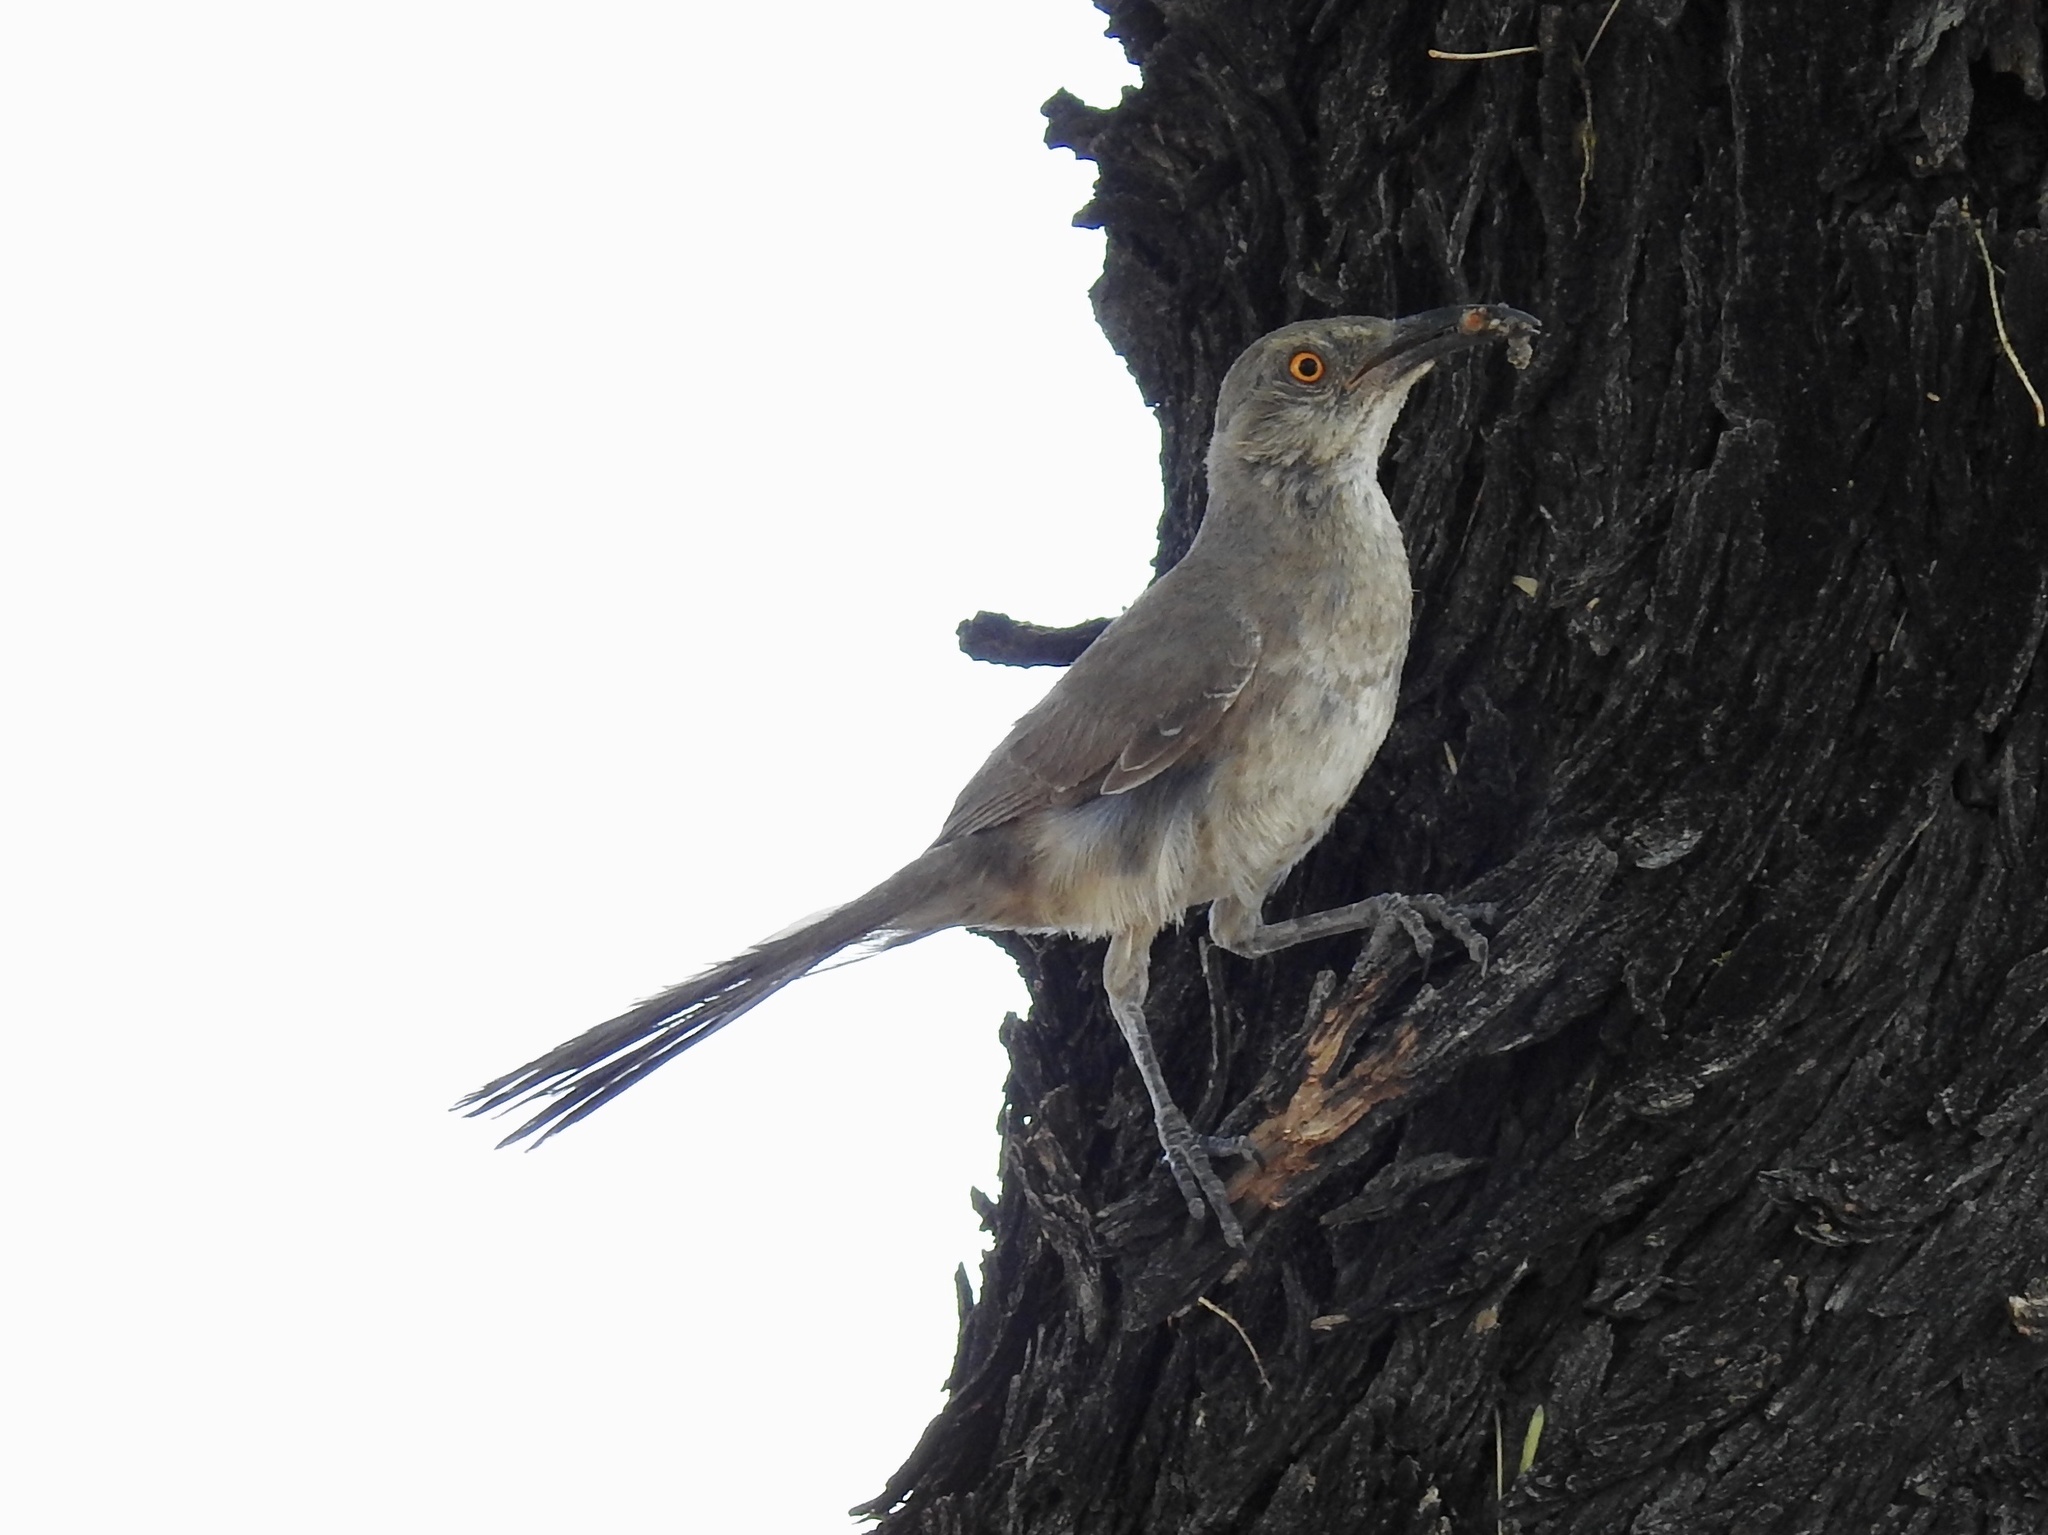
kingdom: Animalia
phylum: Chordata
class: Aves
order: Passeriformes
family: Mimidae
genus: Toxostoma
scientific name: Toxostoma curvirostre
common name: Curve-billed thrasher
